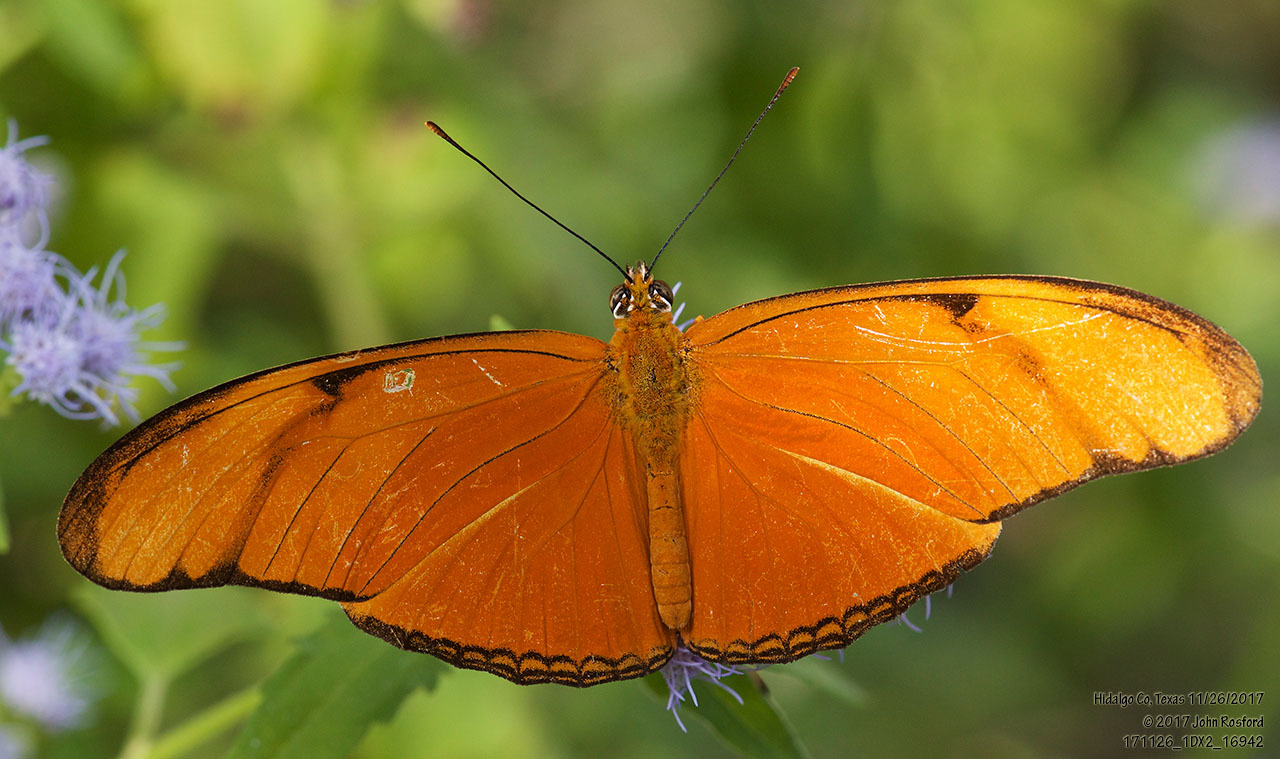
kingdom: Animalia
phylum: Arthropoda
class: Insecta
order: Lepidoptera
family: Nymphalidae
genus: Dryas
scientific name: Dryas iulia
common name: Flambeau
